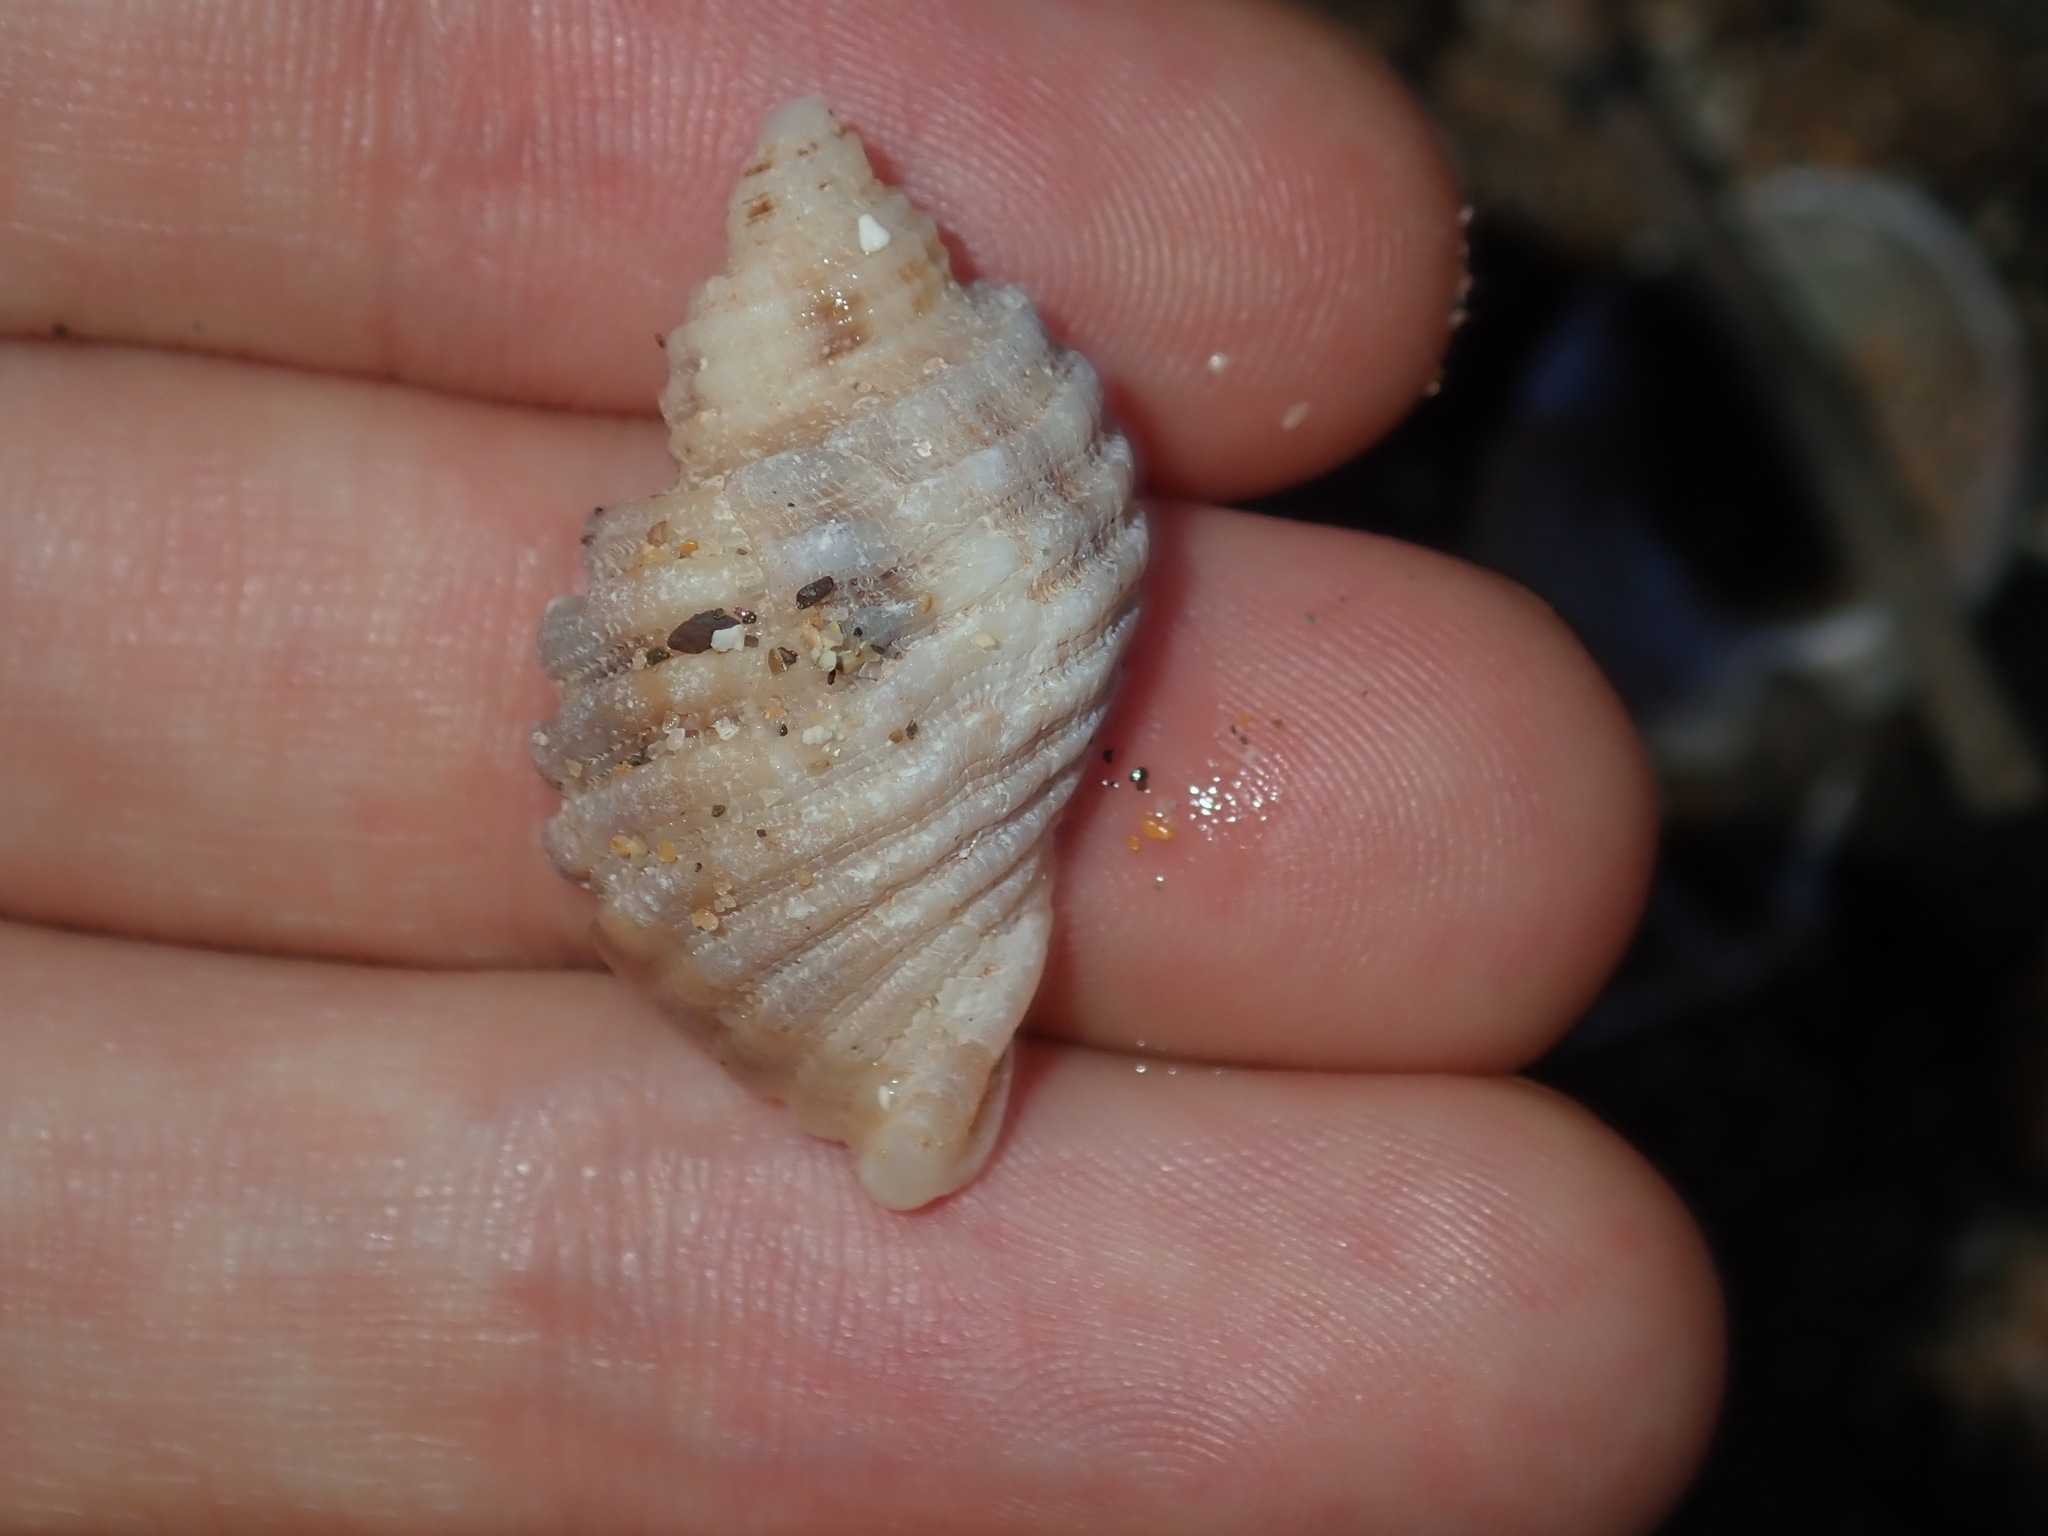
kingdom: Animalia
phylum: Mollusca
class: Gastropoda
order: Neogastropoda
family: Muricidae
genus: Dicathais
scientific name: Dicathais orbita
